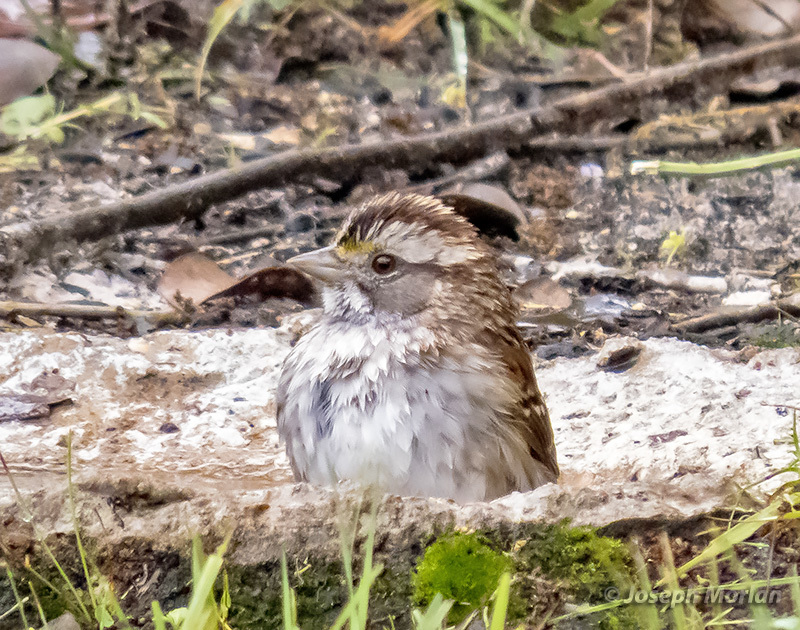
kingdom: Animalia
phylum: Chordata
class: Aves
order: Passeriformes
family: Passerellidae
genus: Zonotrichia
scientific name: Zonotrichia albicollis
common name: White-throated sparrow
